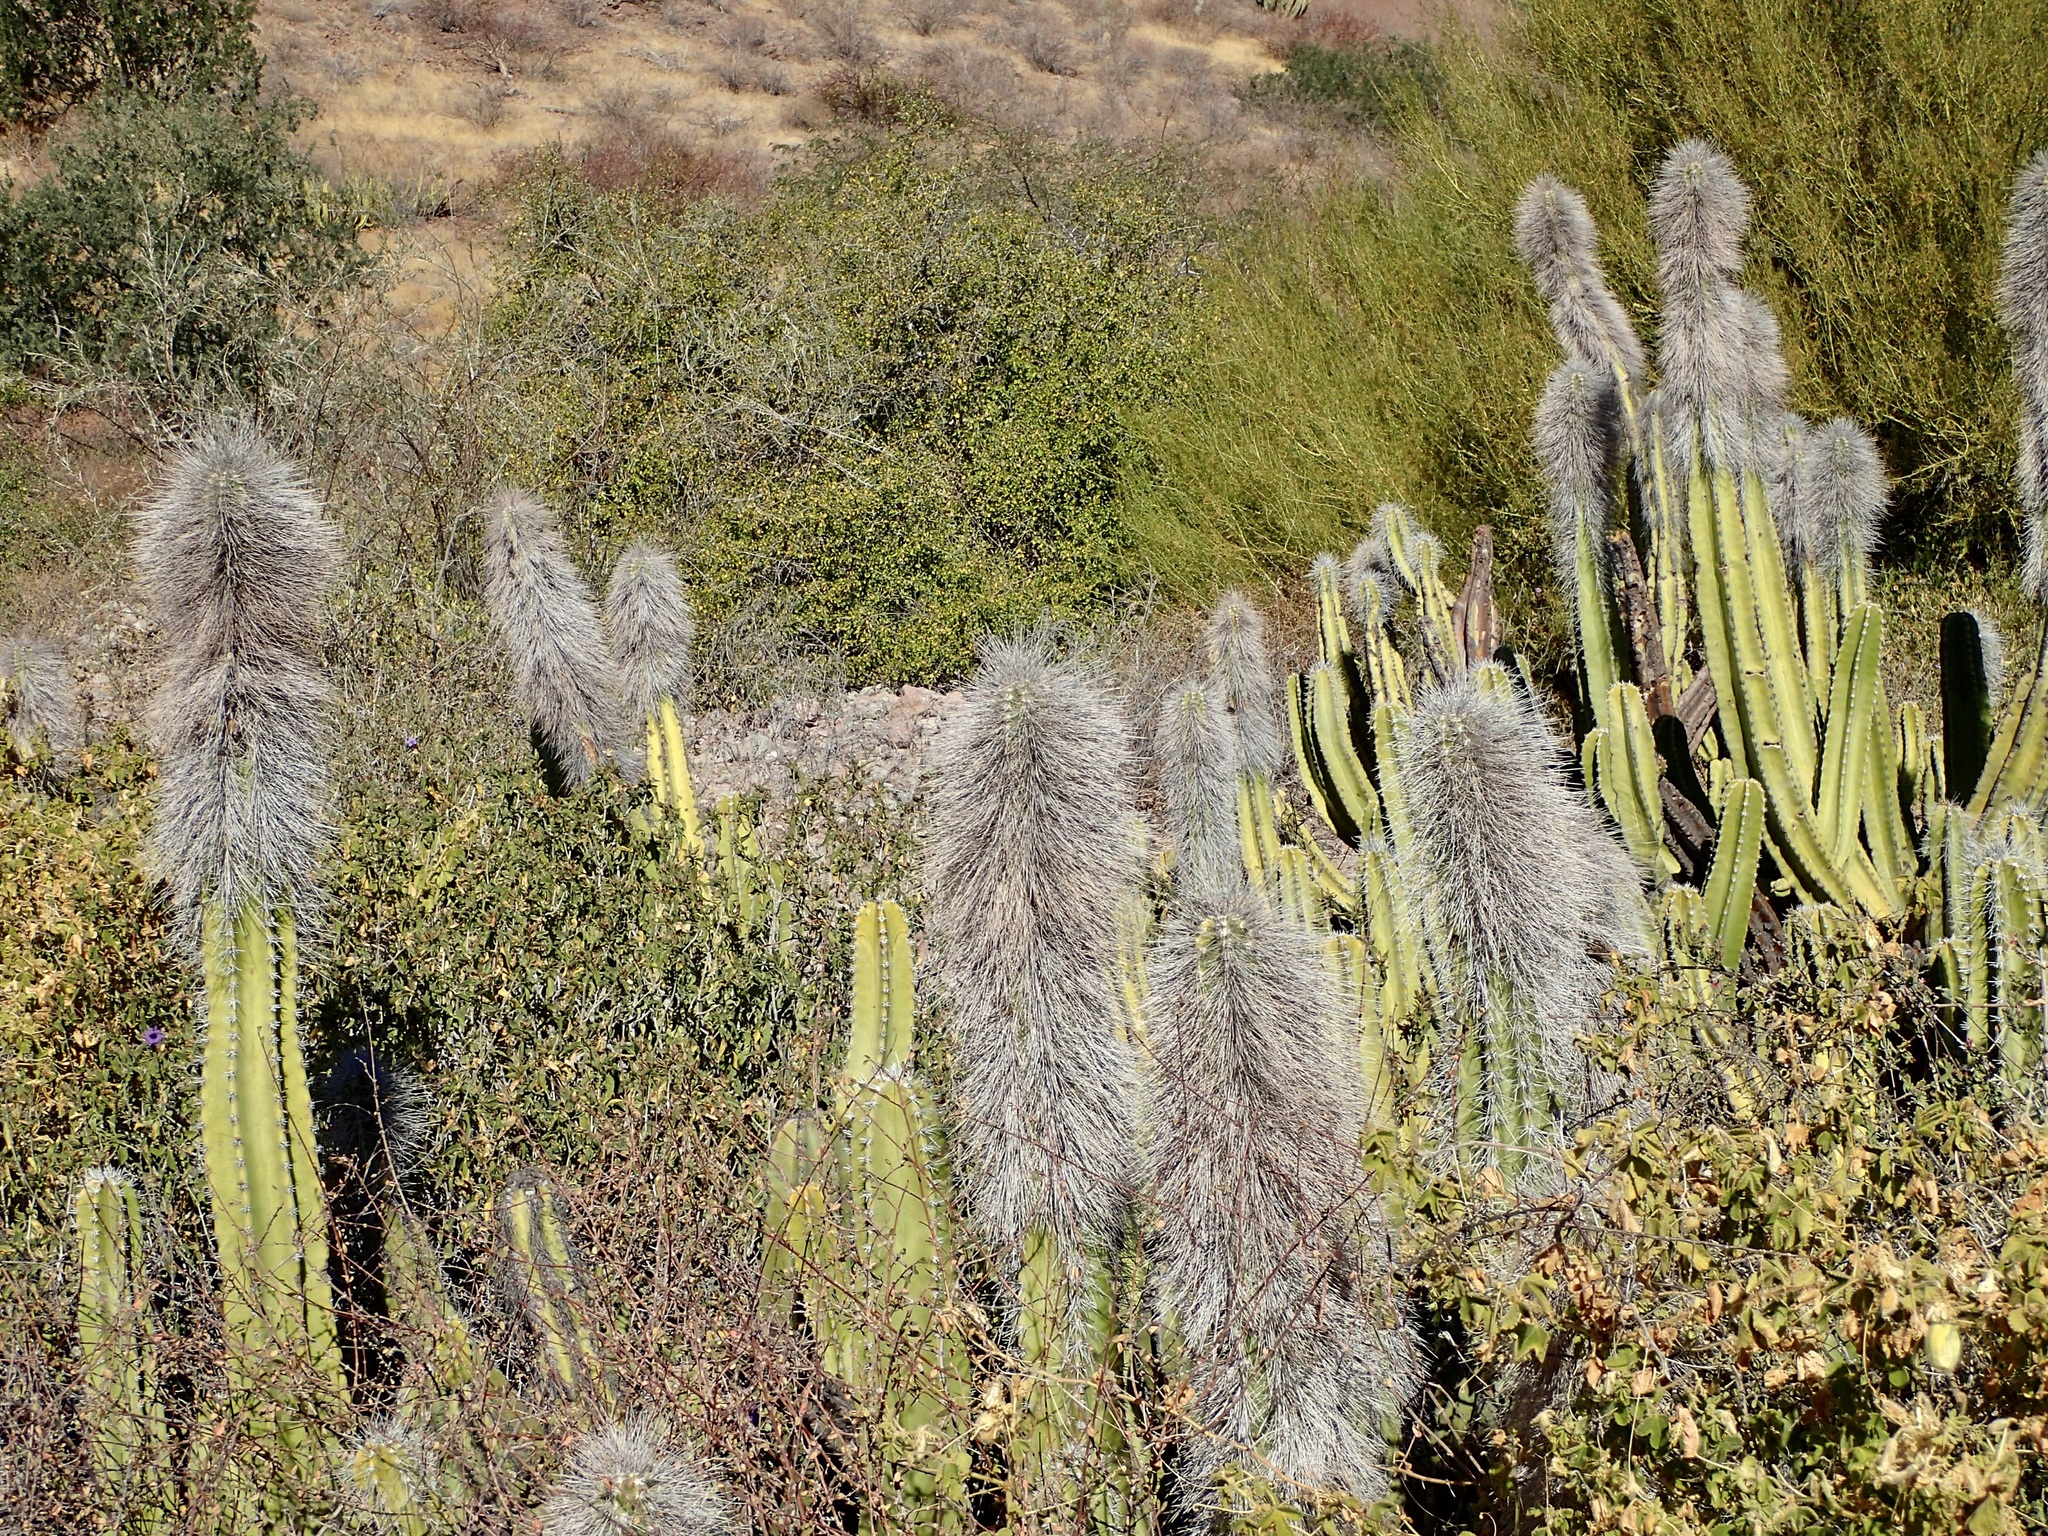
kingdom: Plantae
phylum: Tracheophyta
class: Magnoliopsida
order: Caryophyllales
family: Cactaceae
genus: Pachycereus
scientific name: Pachycereus schottii
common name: Senita cactus
